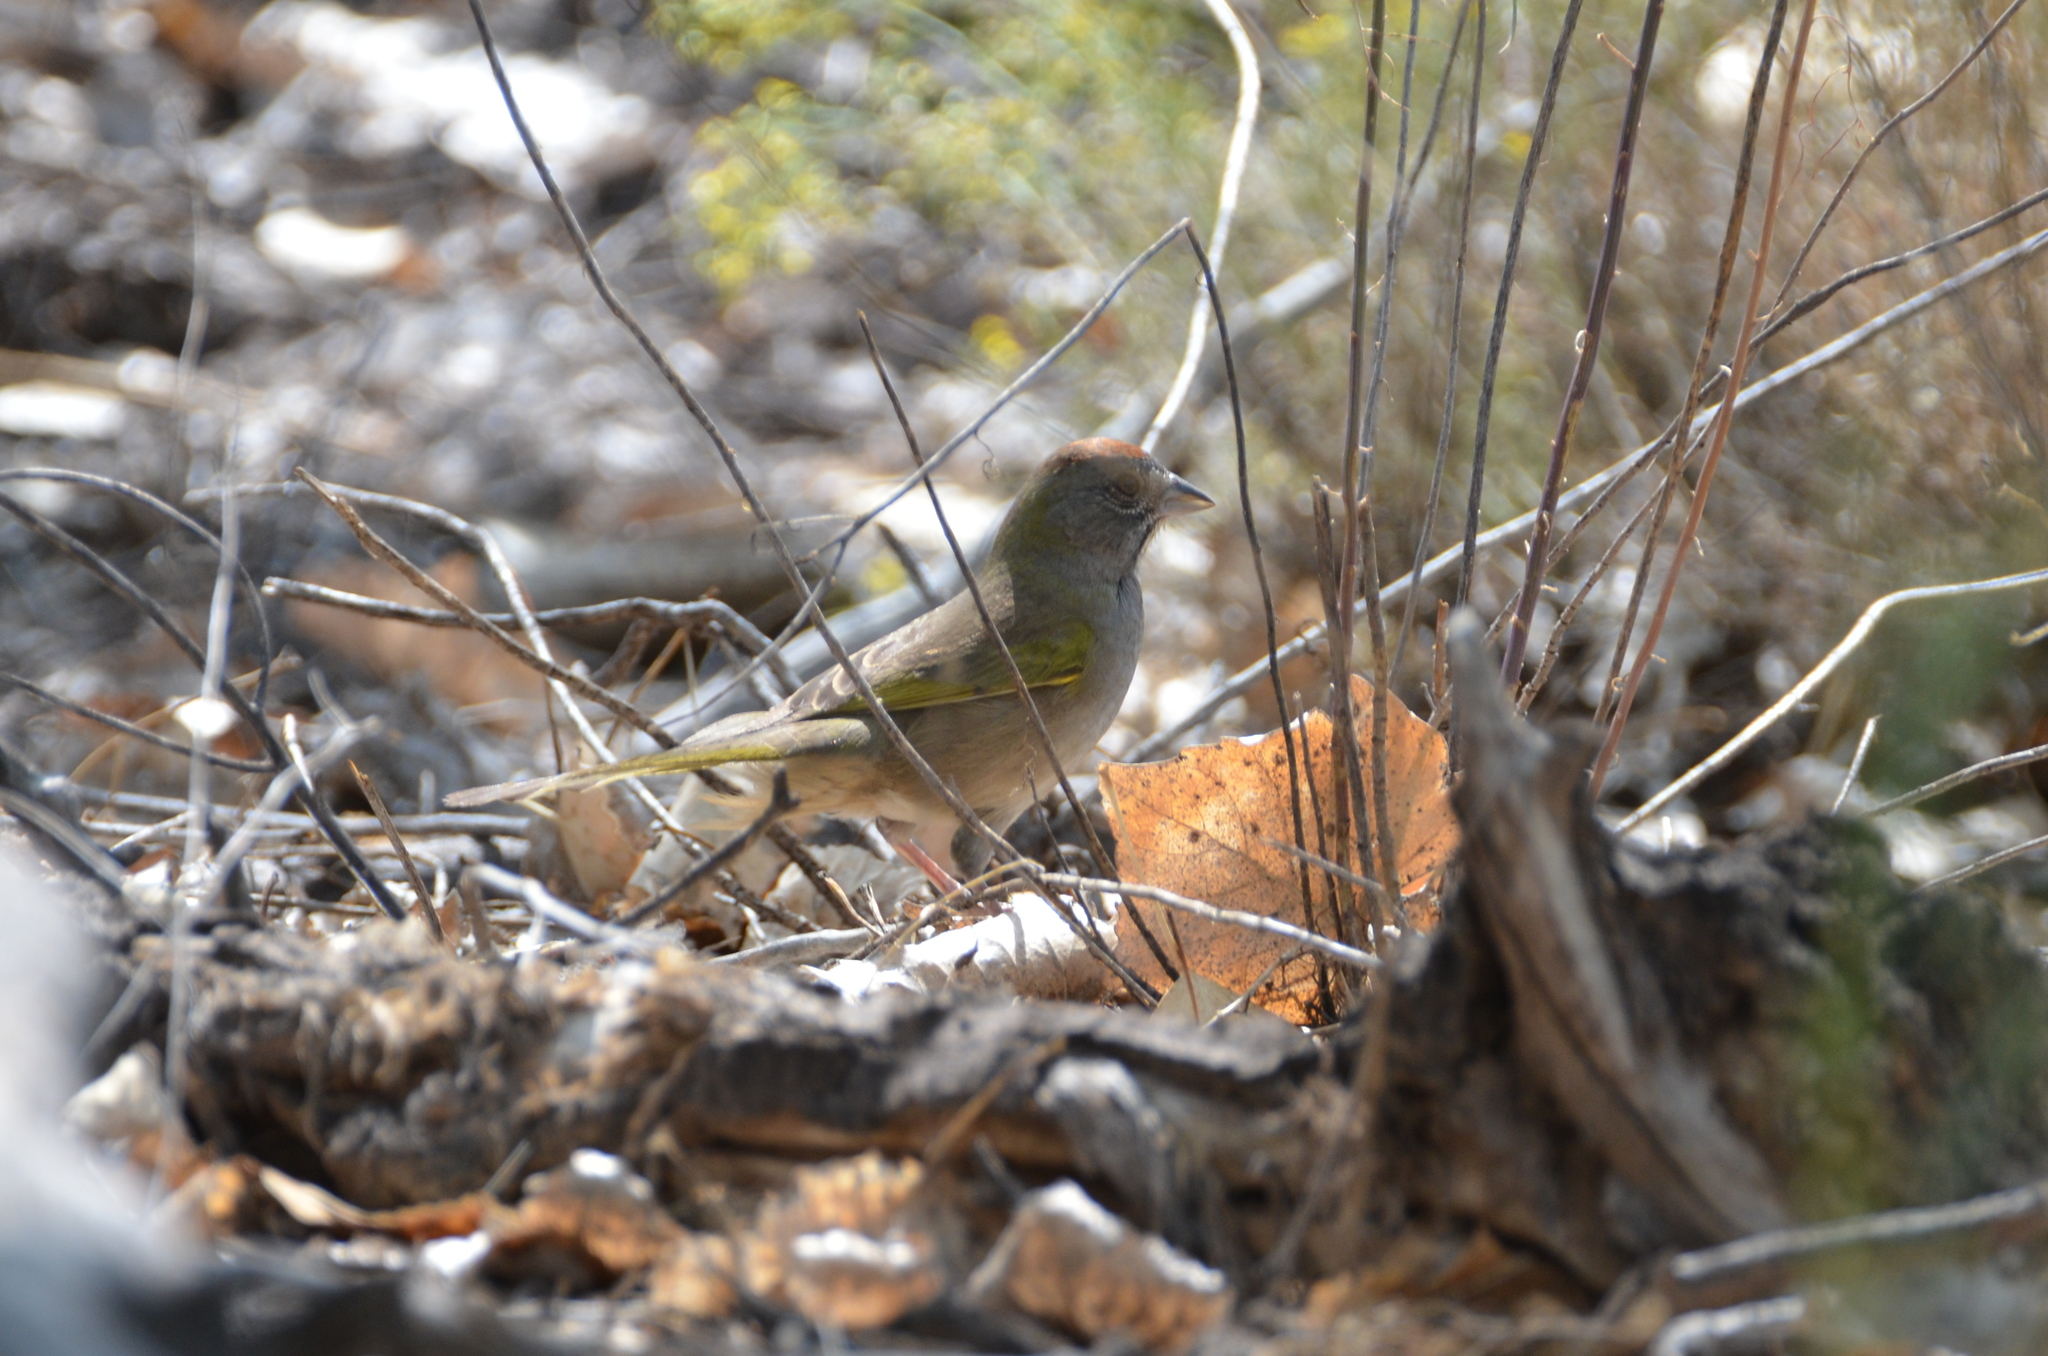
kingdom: Animalia
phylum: Chordata
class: Aves
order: Passeriformes
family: Passerellidae
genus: Pipilo
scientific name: Pipilo chlorurus
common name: Green-tailed towhee
